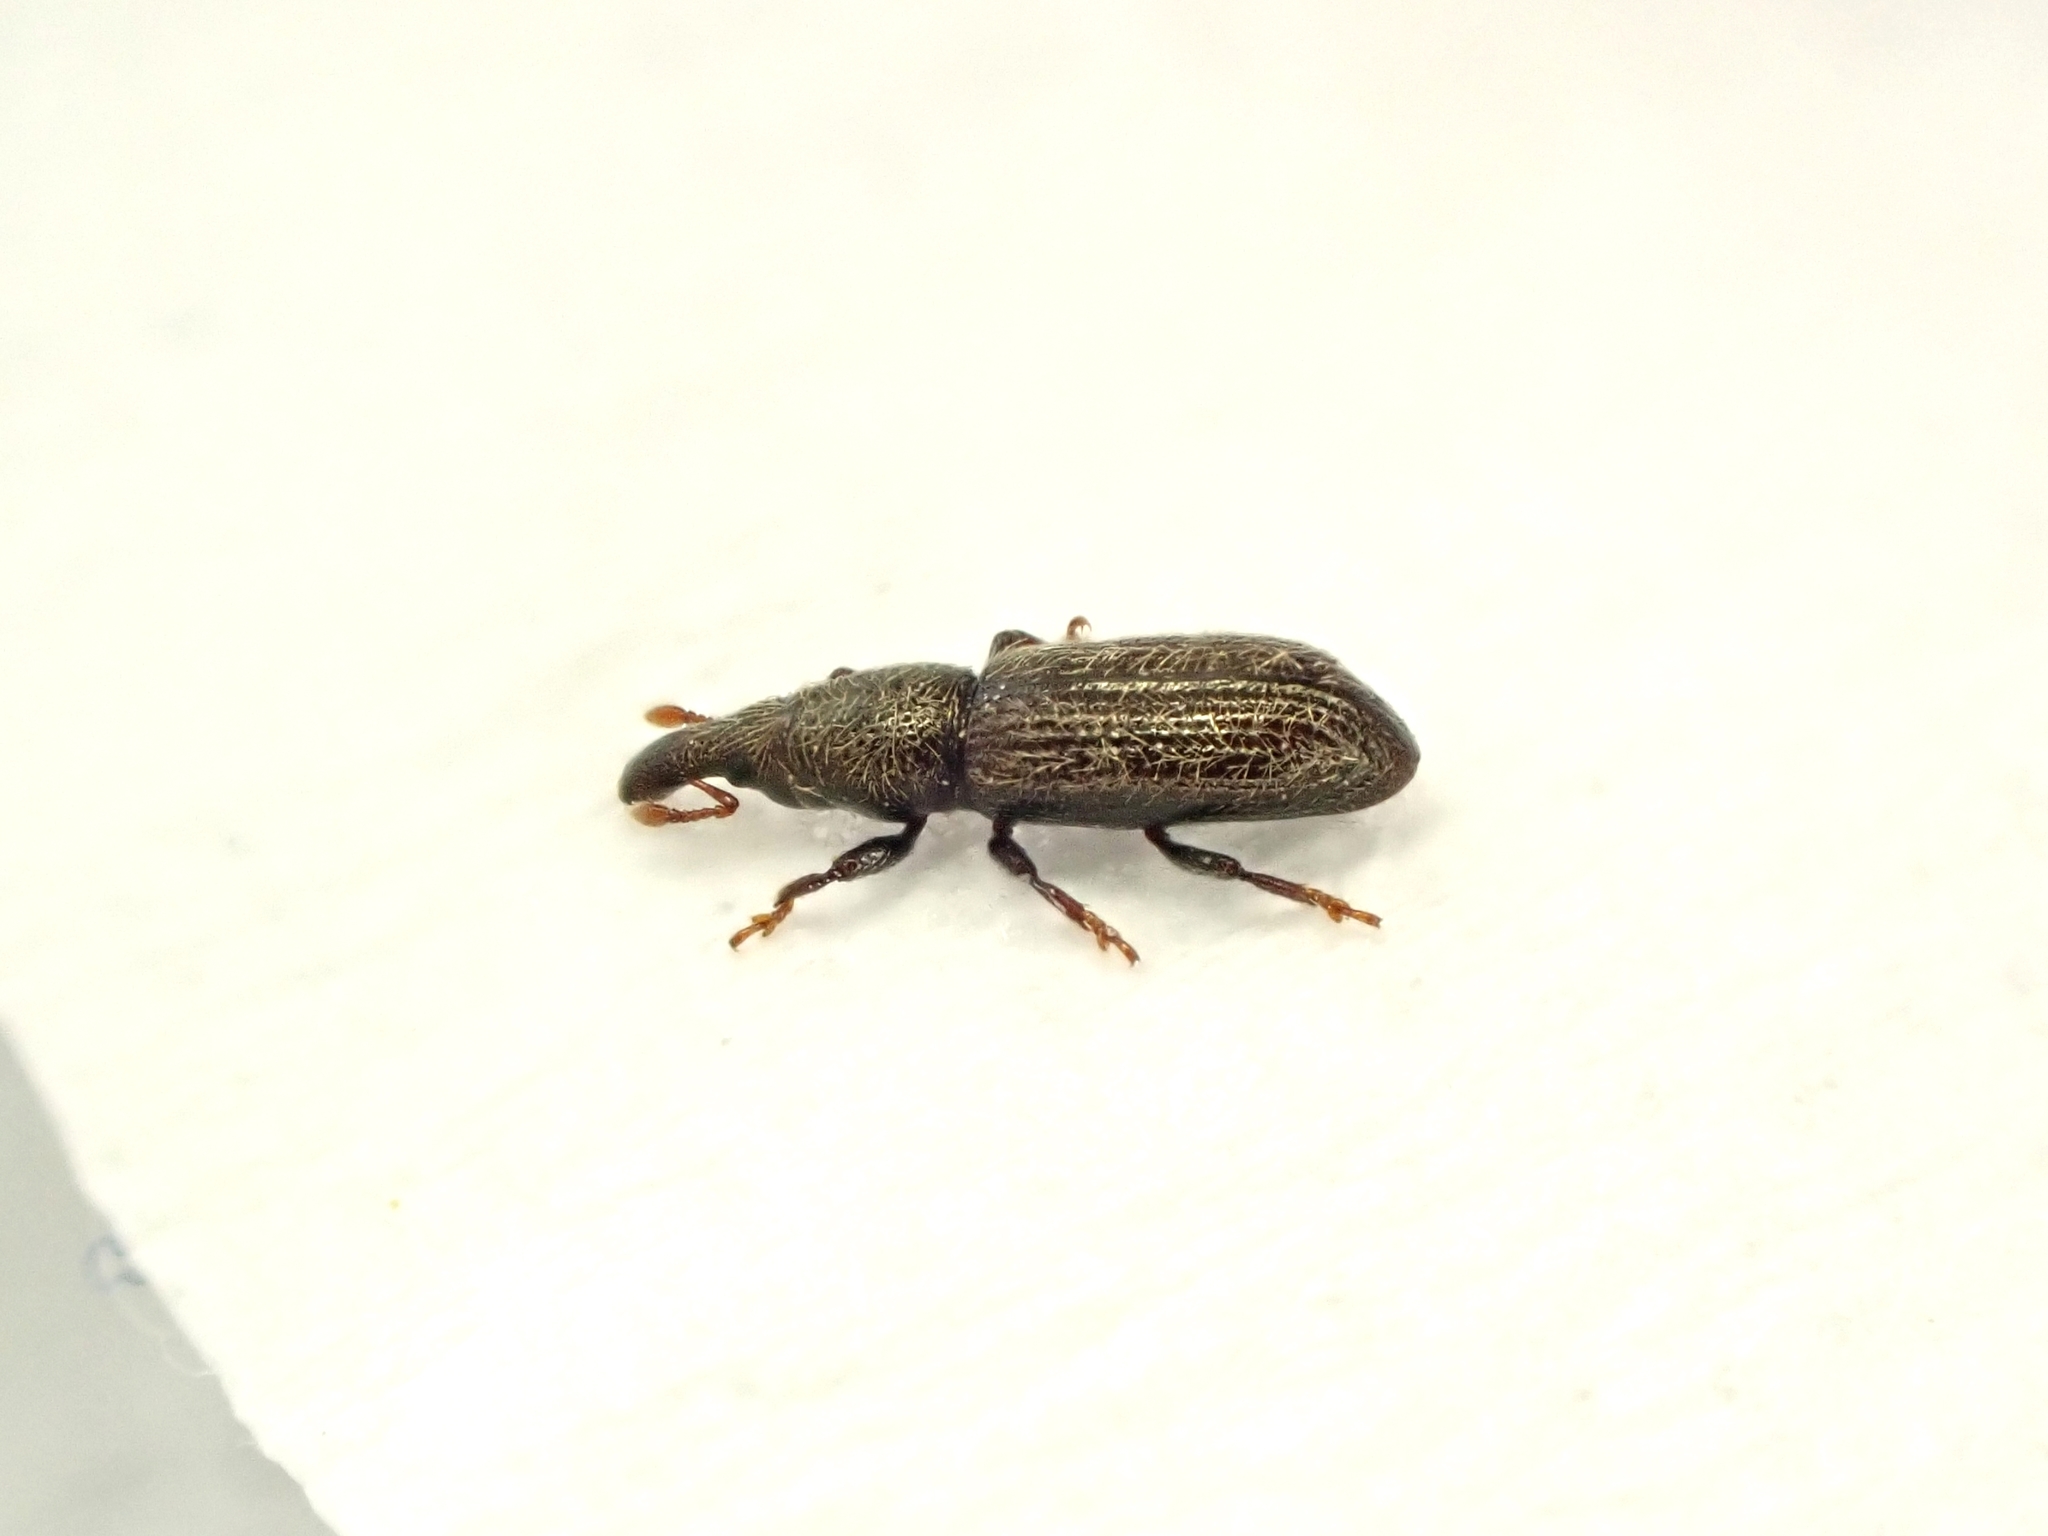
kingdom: Animalia
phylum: Arthropoda
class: Insecta
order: Coleoptera
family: Curculionidae
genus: Sericotrogus
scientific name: Sericotrogus subaenescens
